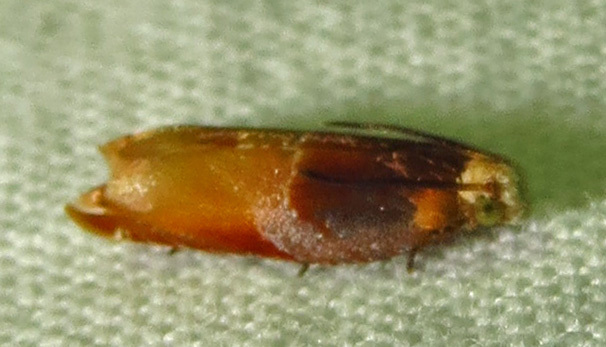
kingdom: Animalia
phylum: Arthropoda
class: Insecta
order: Lepidoptera
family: Tortricidae
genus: Ancylis
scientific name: Ancylis divisana
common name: Two-toned ancylis moth
